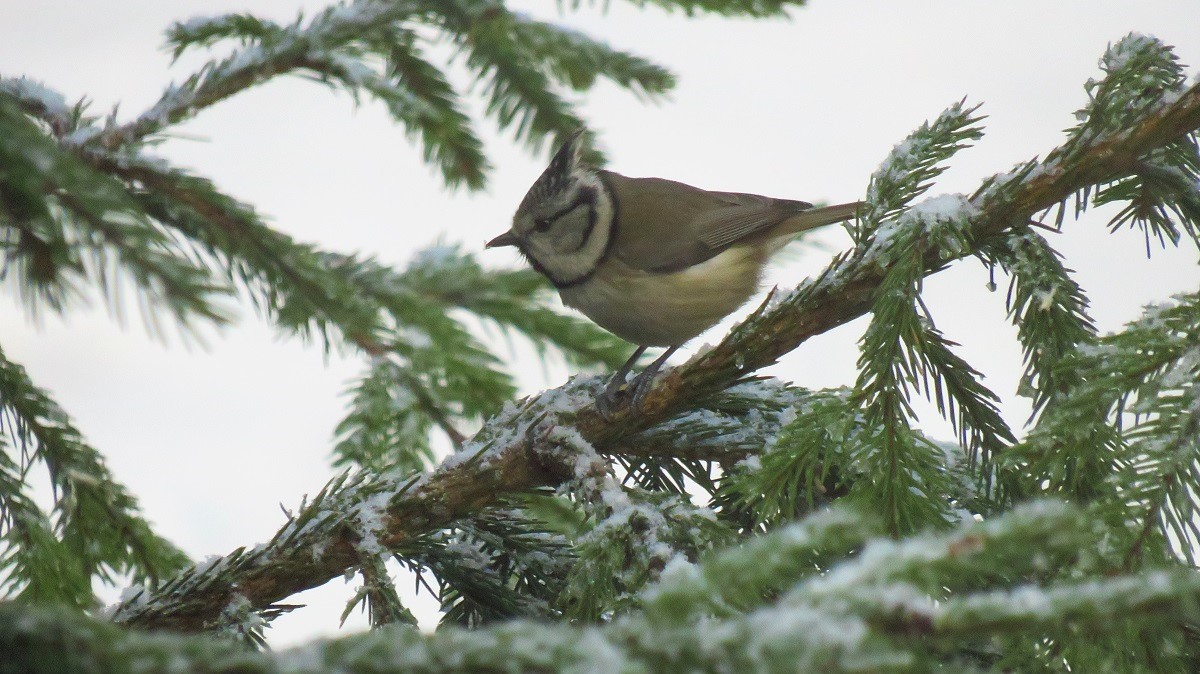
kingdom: Animalia
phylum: Chordata
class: Aves
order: Passeriformes
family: Paridae
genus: Lophophanes
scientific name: Lophophanes cristatus
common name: European crested tit
